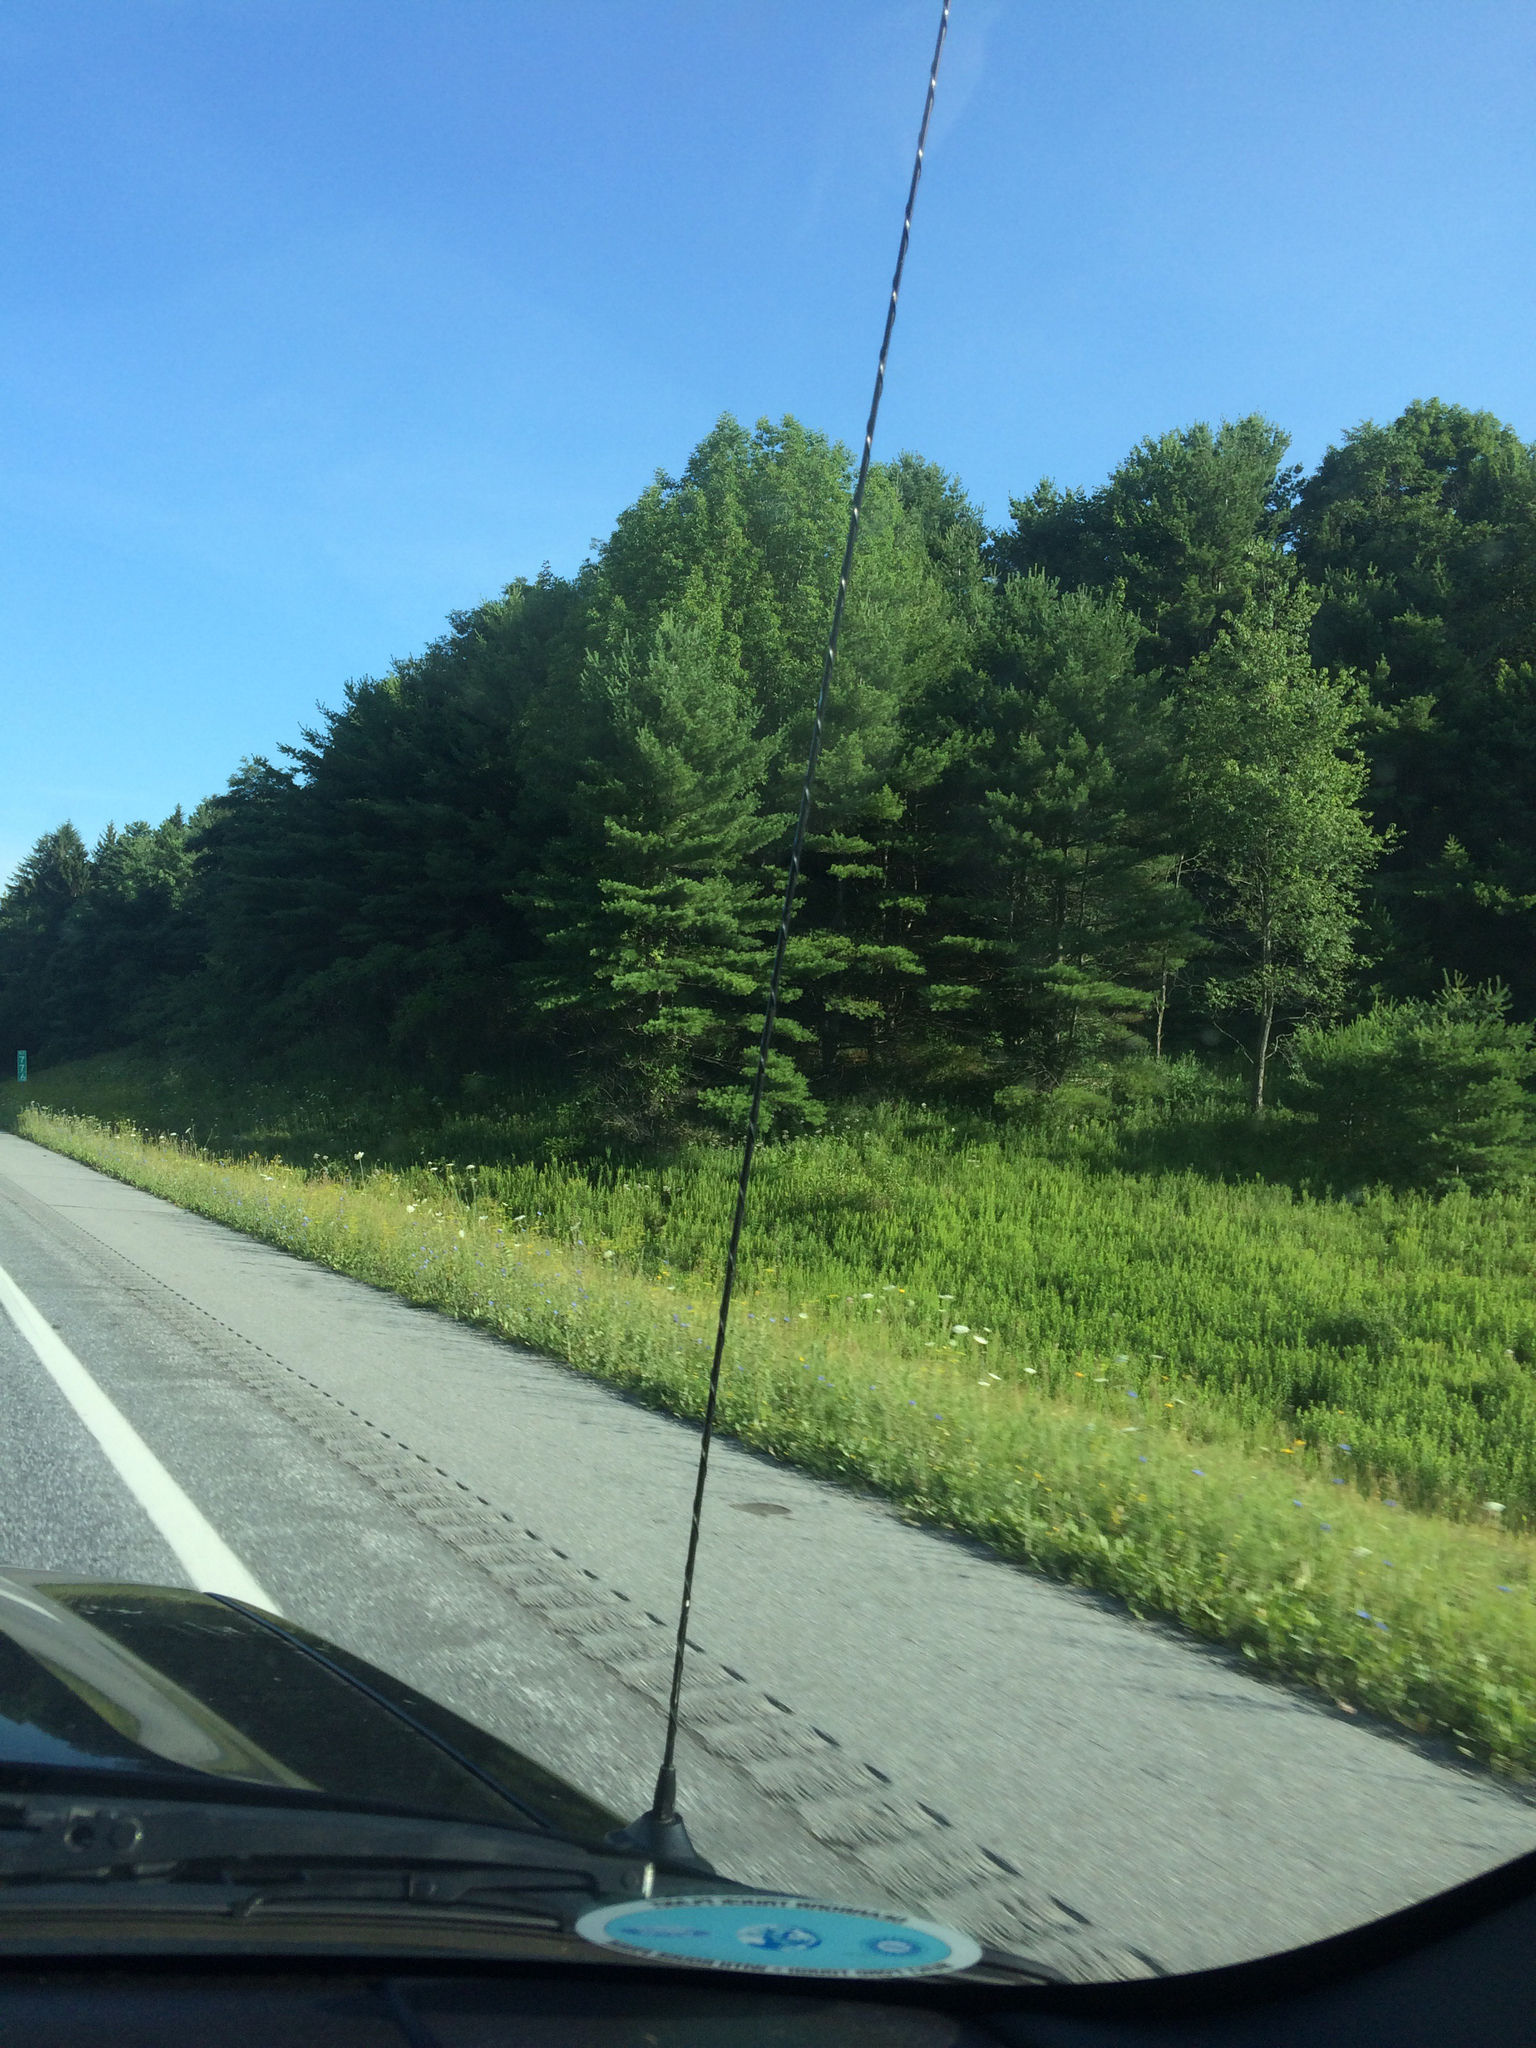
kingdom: Plantae
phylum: Tracheophyta
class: Pinopsida
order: Pinales
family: Pinaceae
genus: Pinus
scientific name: Pinus strobus
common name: Weymouth pine
